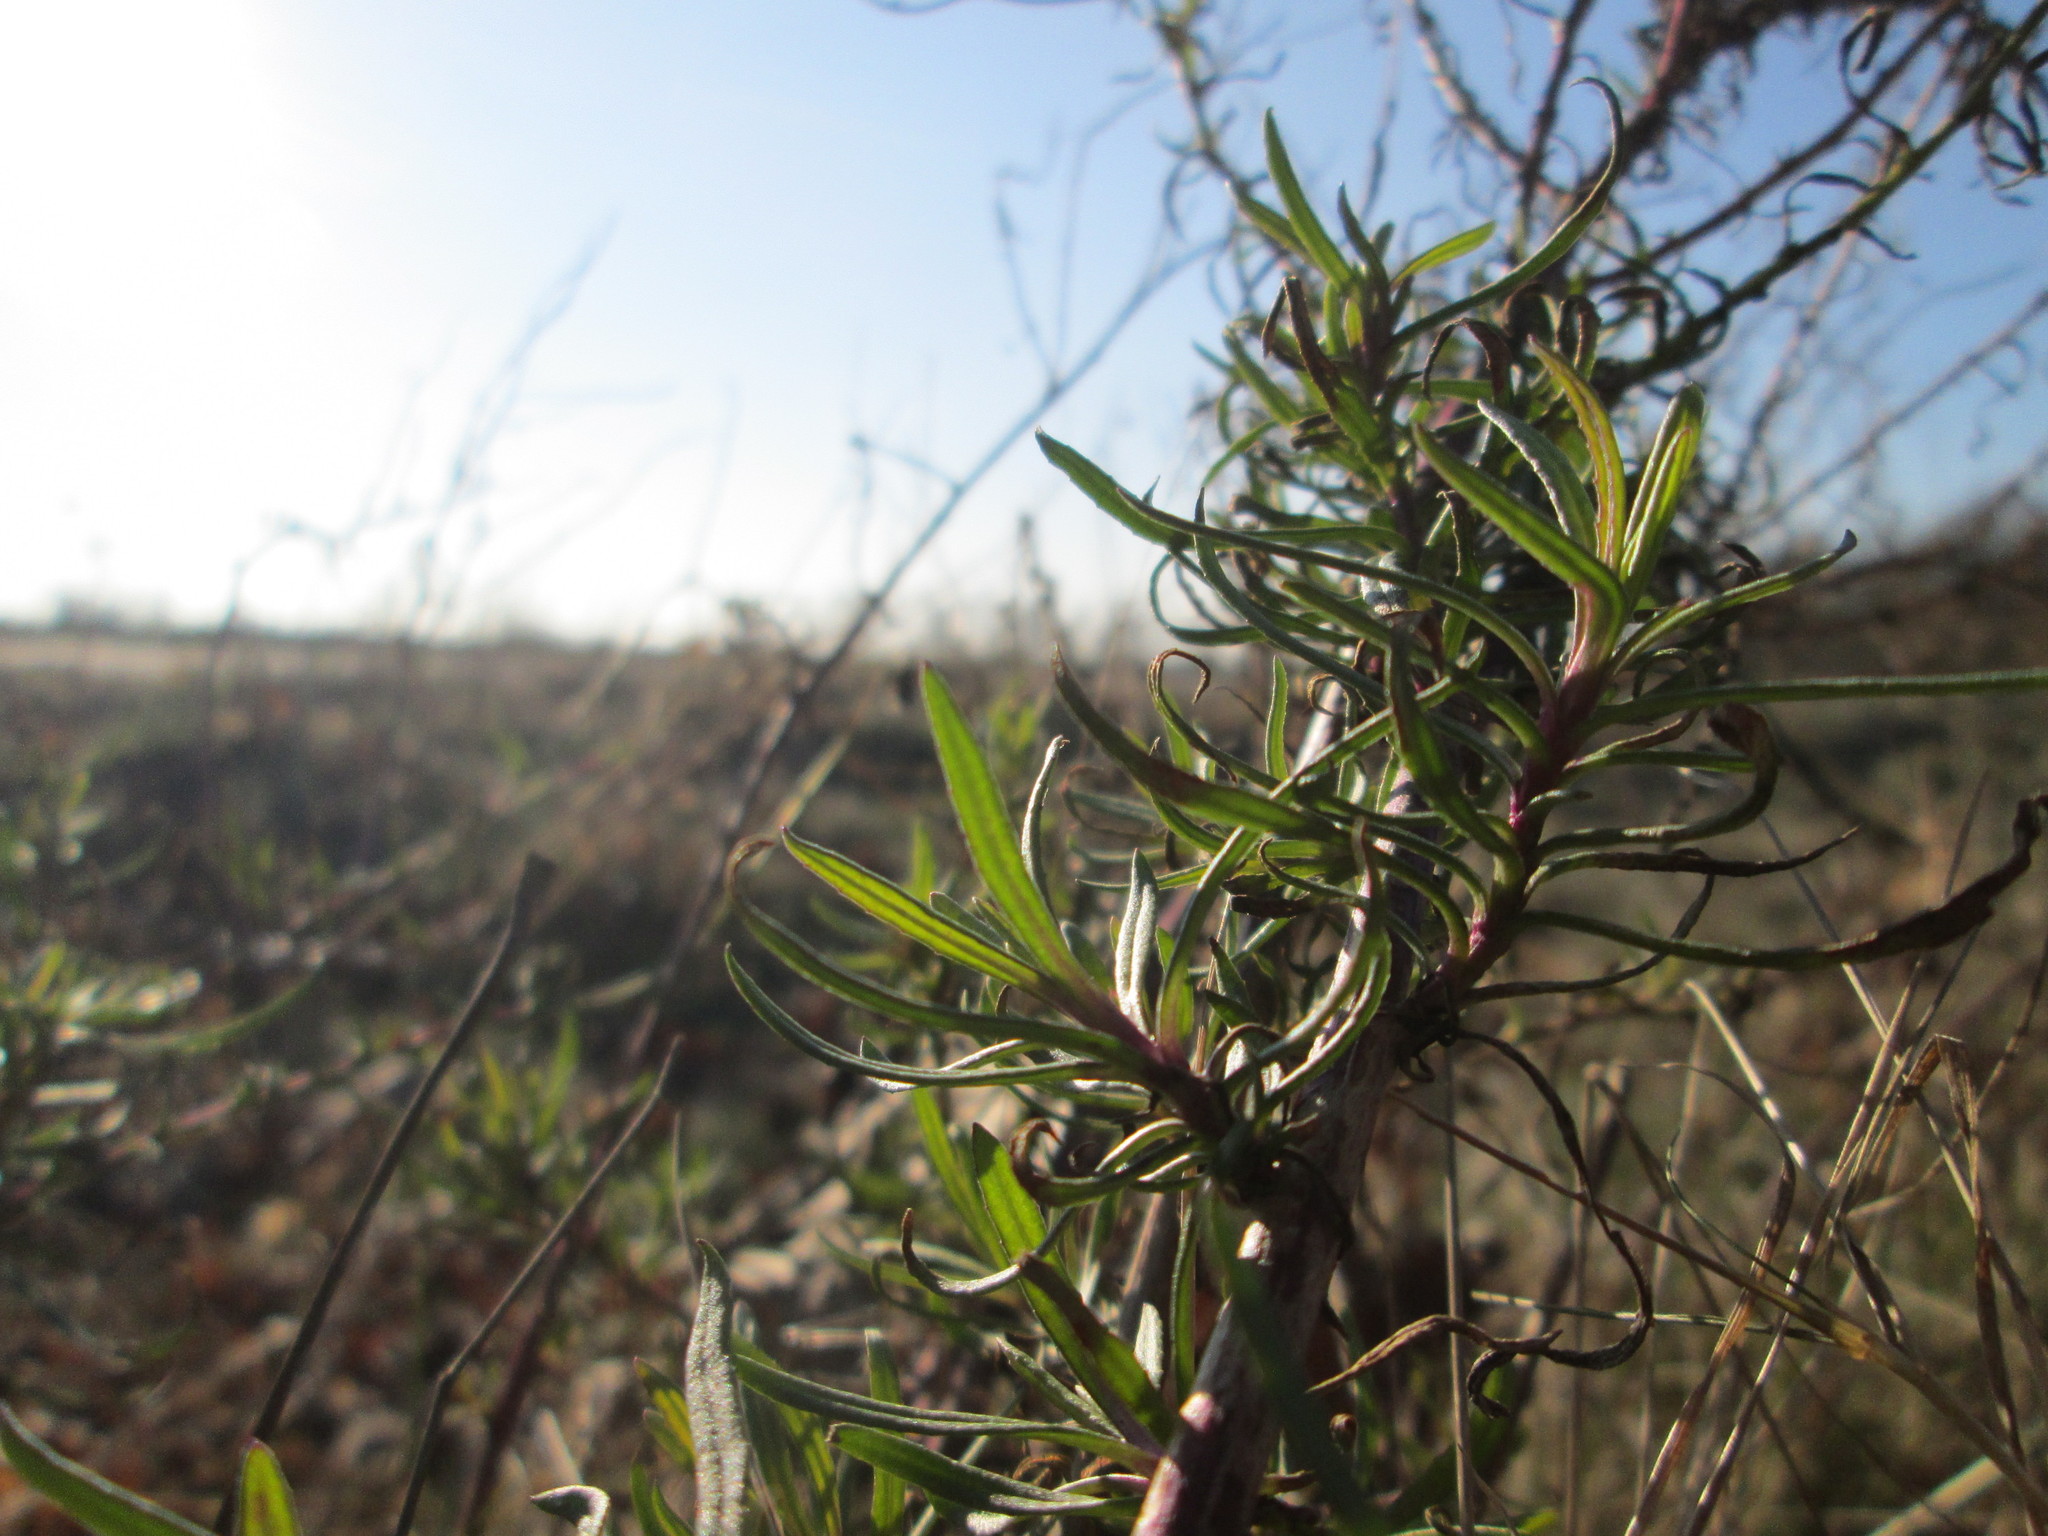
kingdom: Plantae
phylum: Tracheophyta
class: Magnoliopsida
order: Asterales
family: Asteraceae
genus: Senecio
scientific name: Senecio inaequidens
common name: Narrow-leaved ragwort
